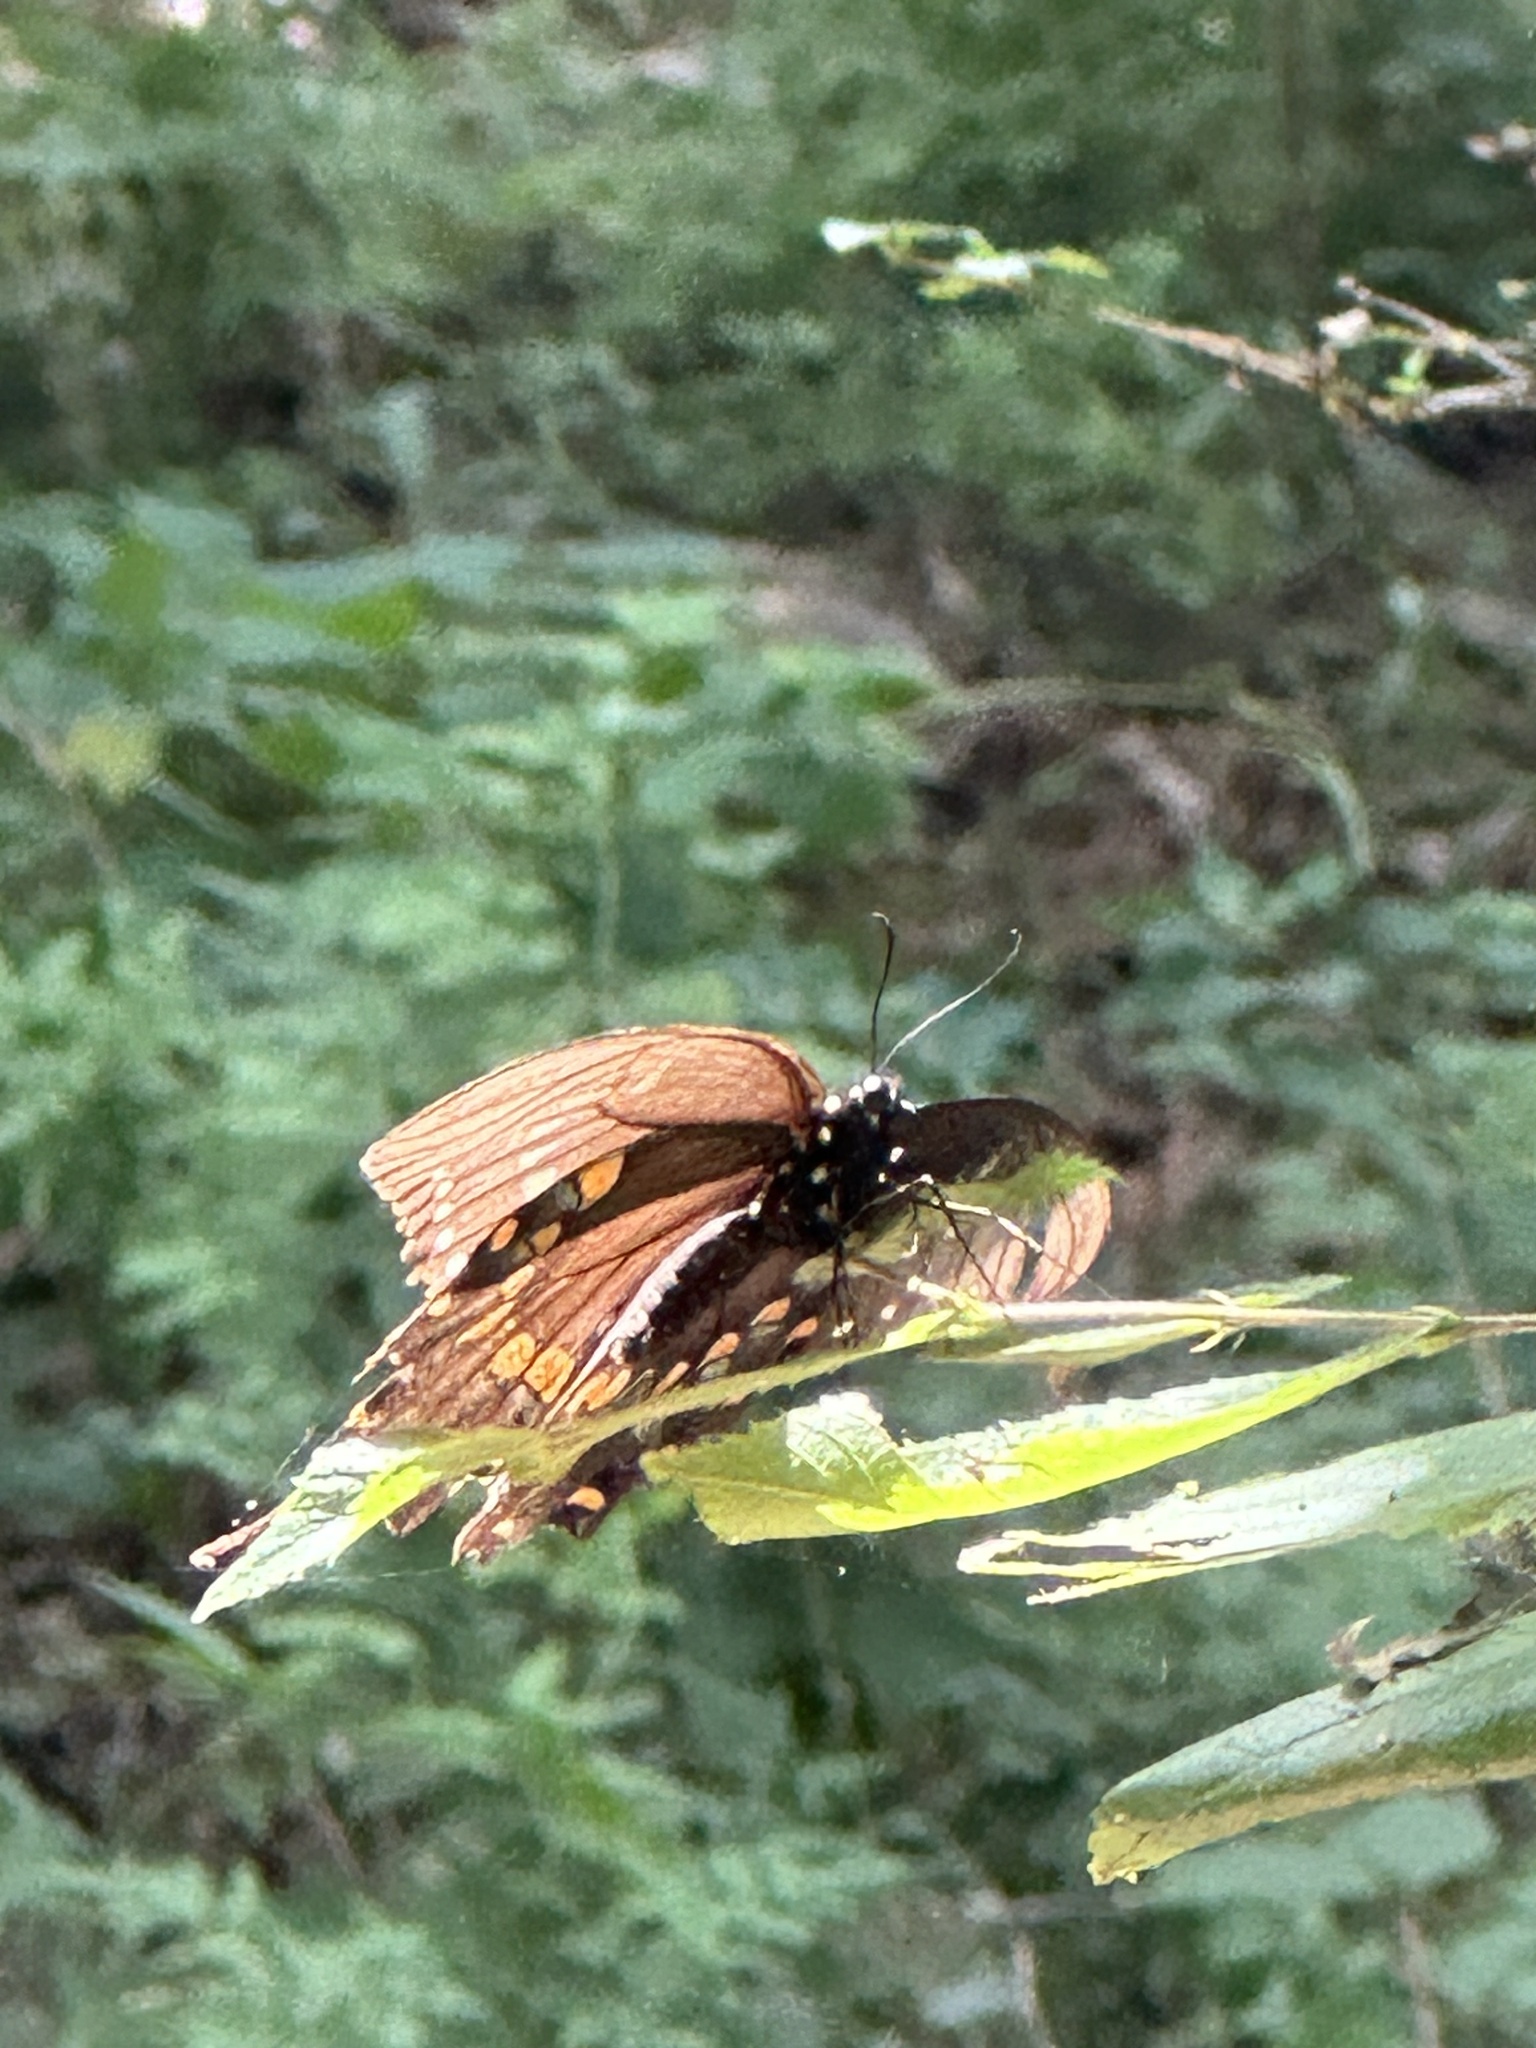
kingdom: Animalia
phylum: Arthropoda
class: Insecta
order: Lepidoptera
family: Papilionidae
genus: Papilio
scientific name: Papilio troilus
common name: Spicebush swallowtail
